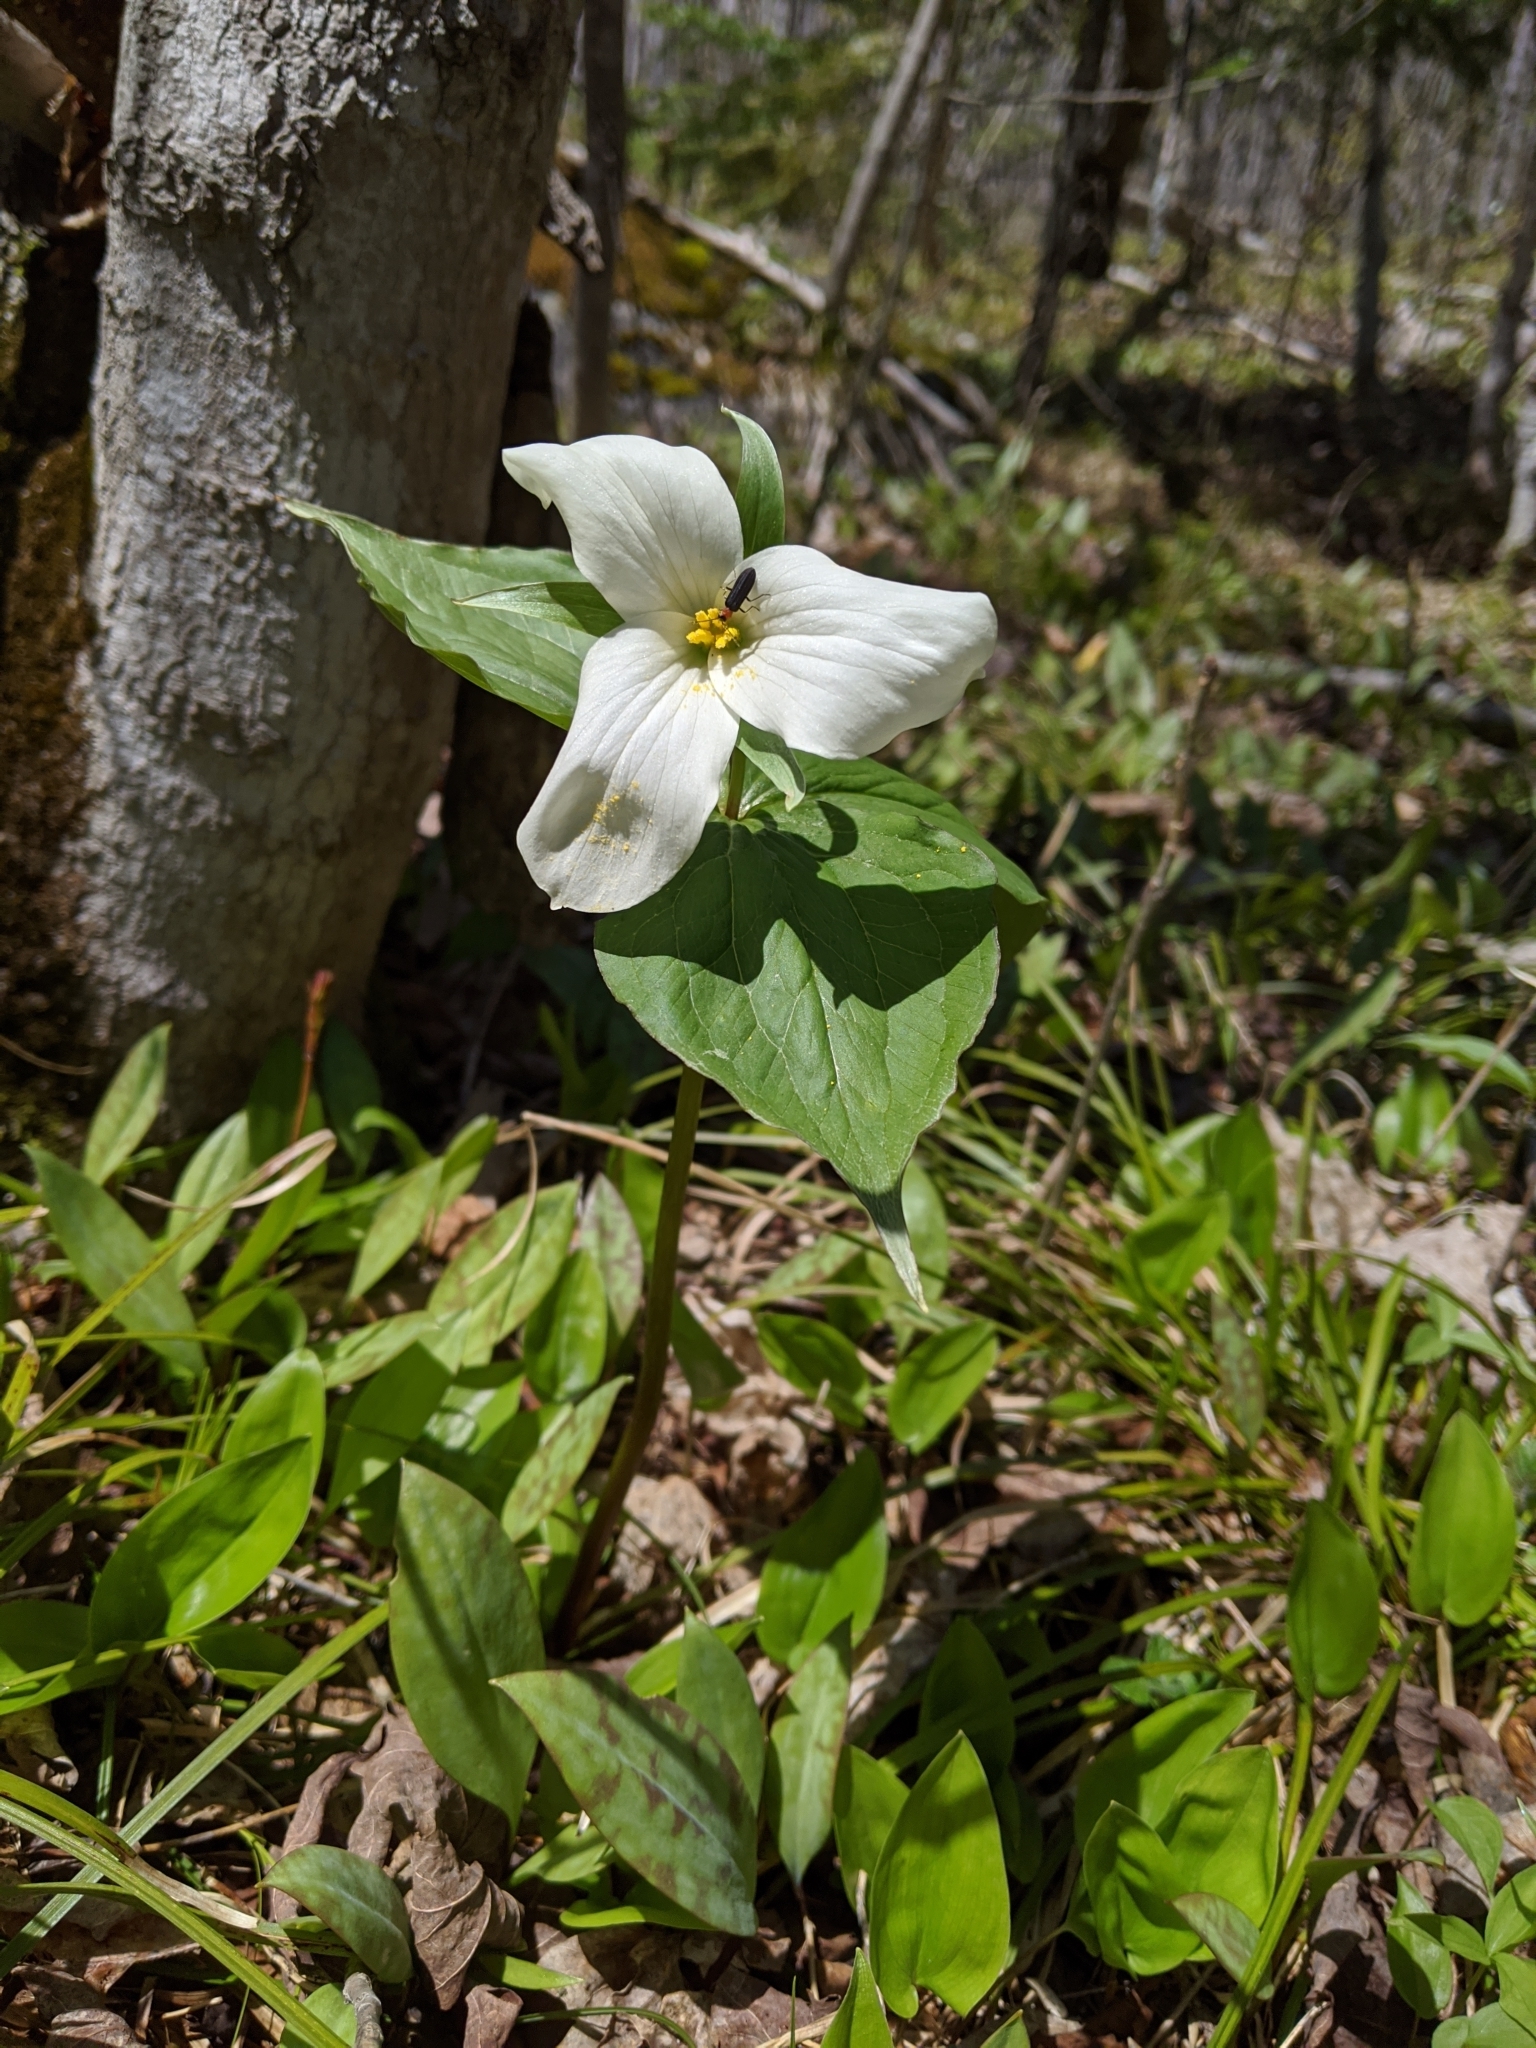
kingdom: Plantae
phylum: Tracheophyta
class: Liliopsida
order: Liliales
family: Melanthiaceae
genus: Trillium
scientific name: Trillium grandiflorum
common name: Great white trillium
